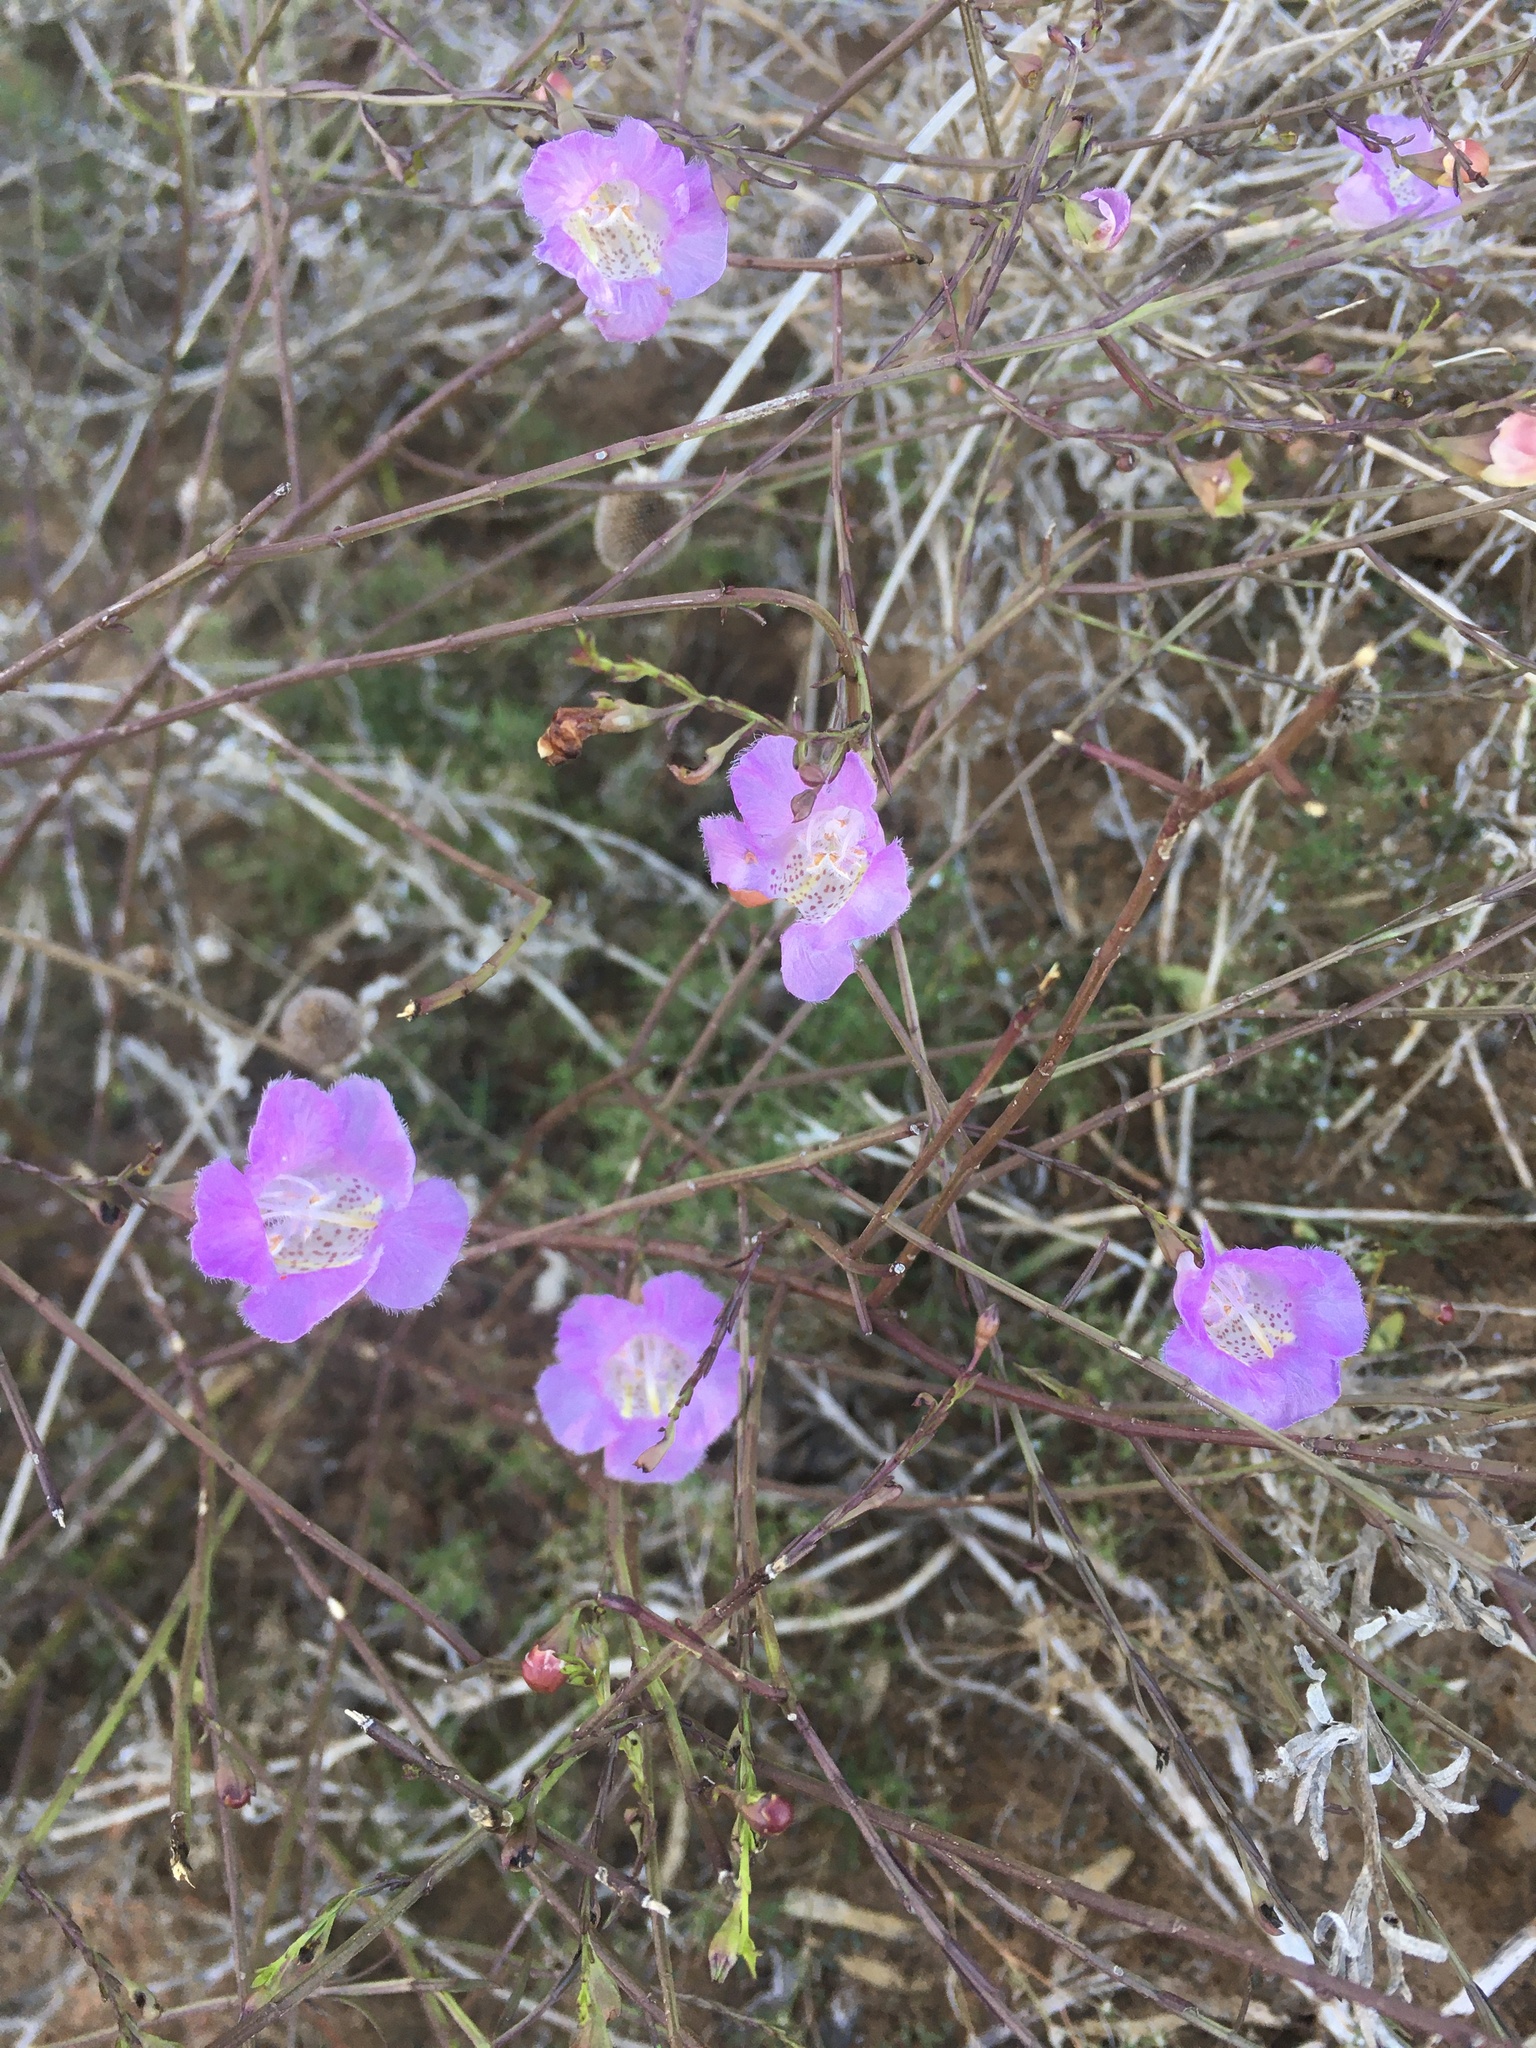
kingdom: Plantae
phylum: Tracheophyta
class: Magnoliopsida
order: Lamiales
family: Orobanchaceae
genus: Agalinis
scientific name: Agalinis heterophylla
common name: Prairie agalinis
